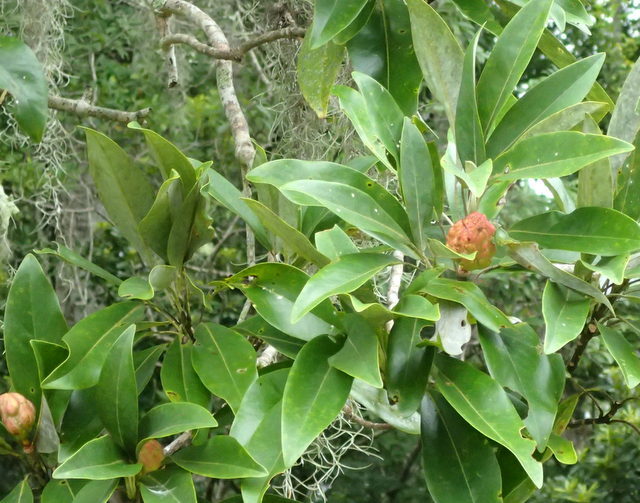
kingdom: Plantae
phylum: Tracheophyta
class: Magnoliopsida
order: Magnoliales
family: Magnoliaceae
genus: Magnolia
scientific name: Magnolia virginiana
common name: Swamp bay
